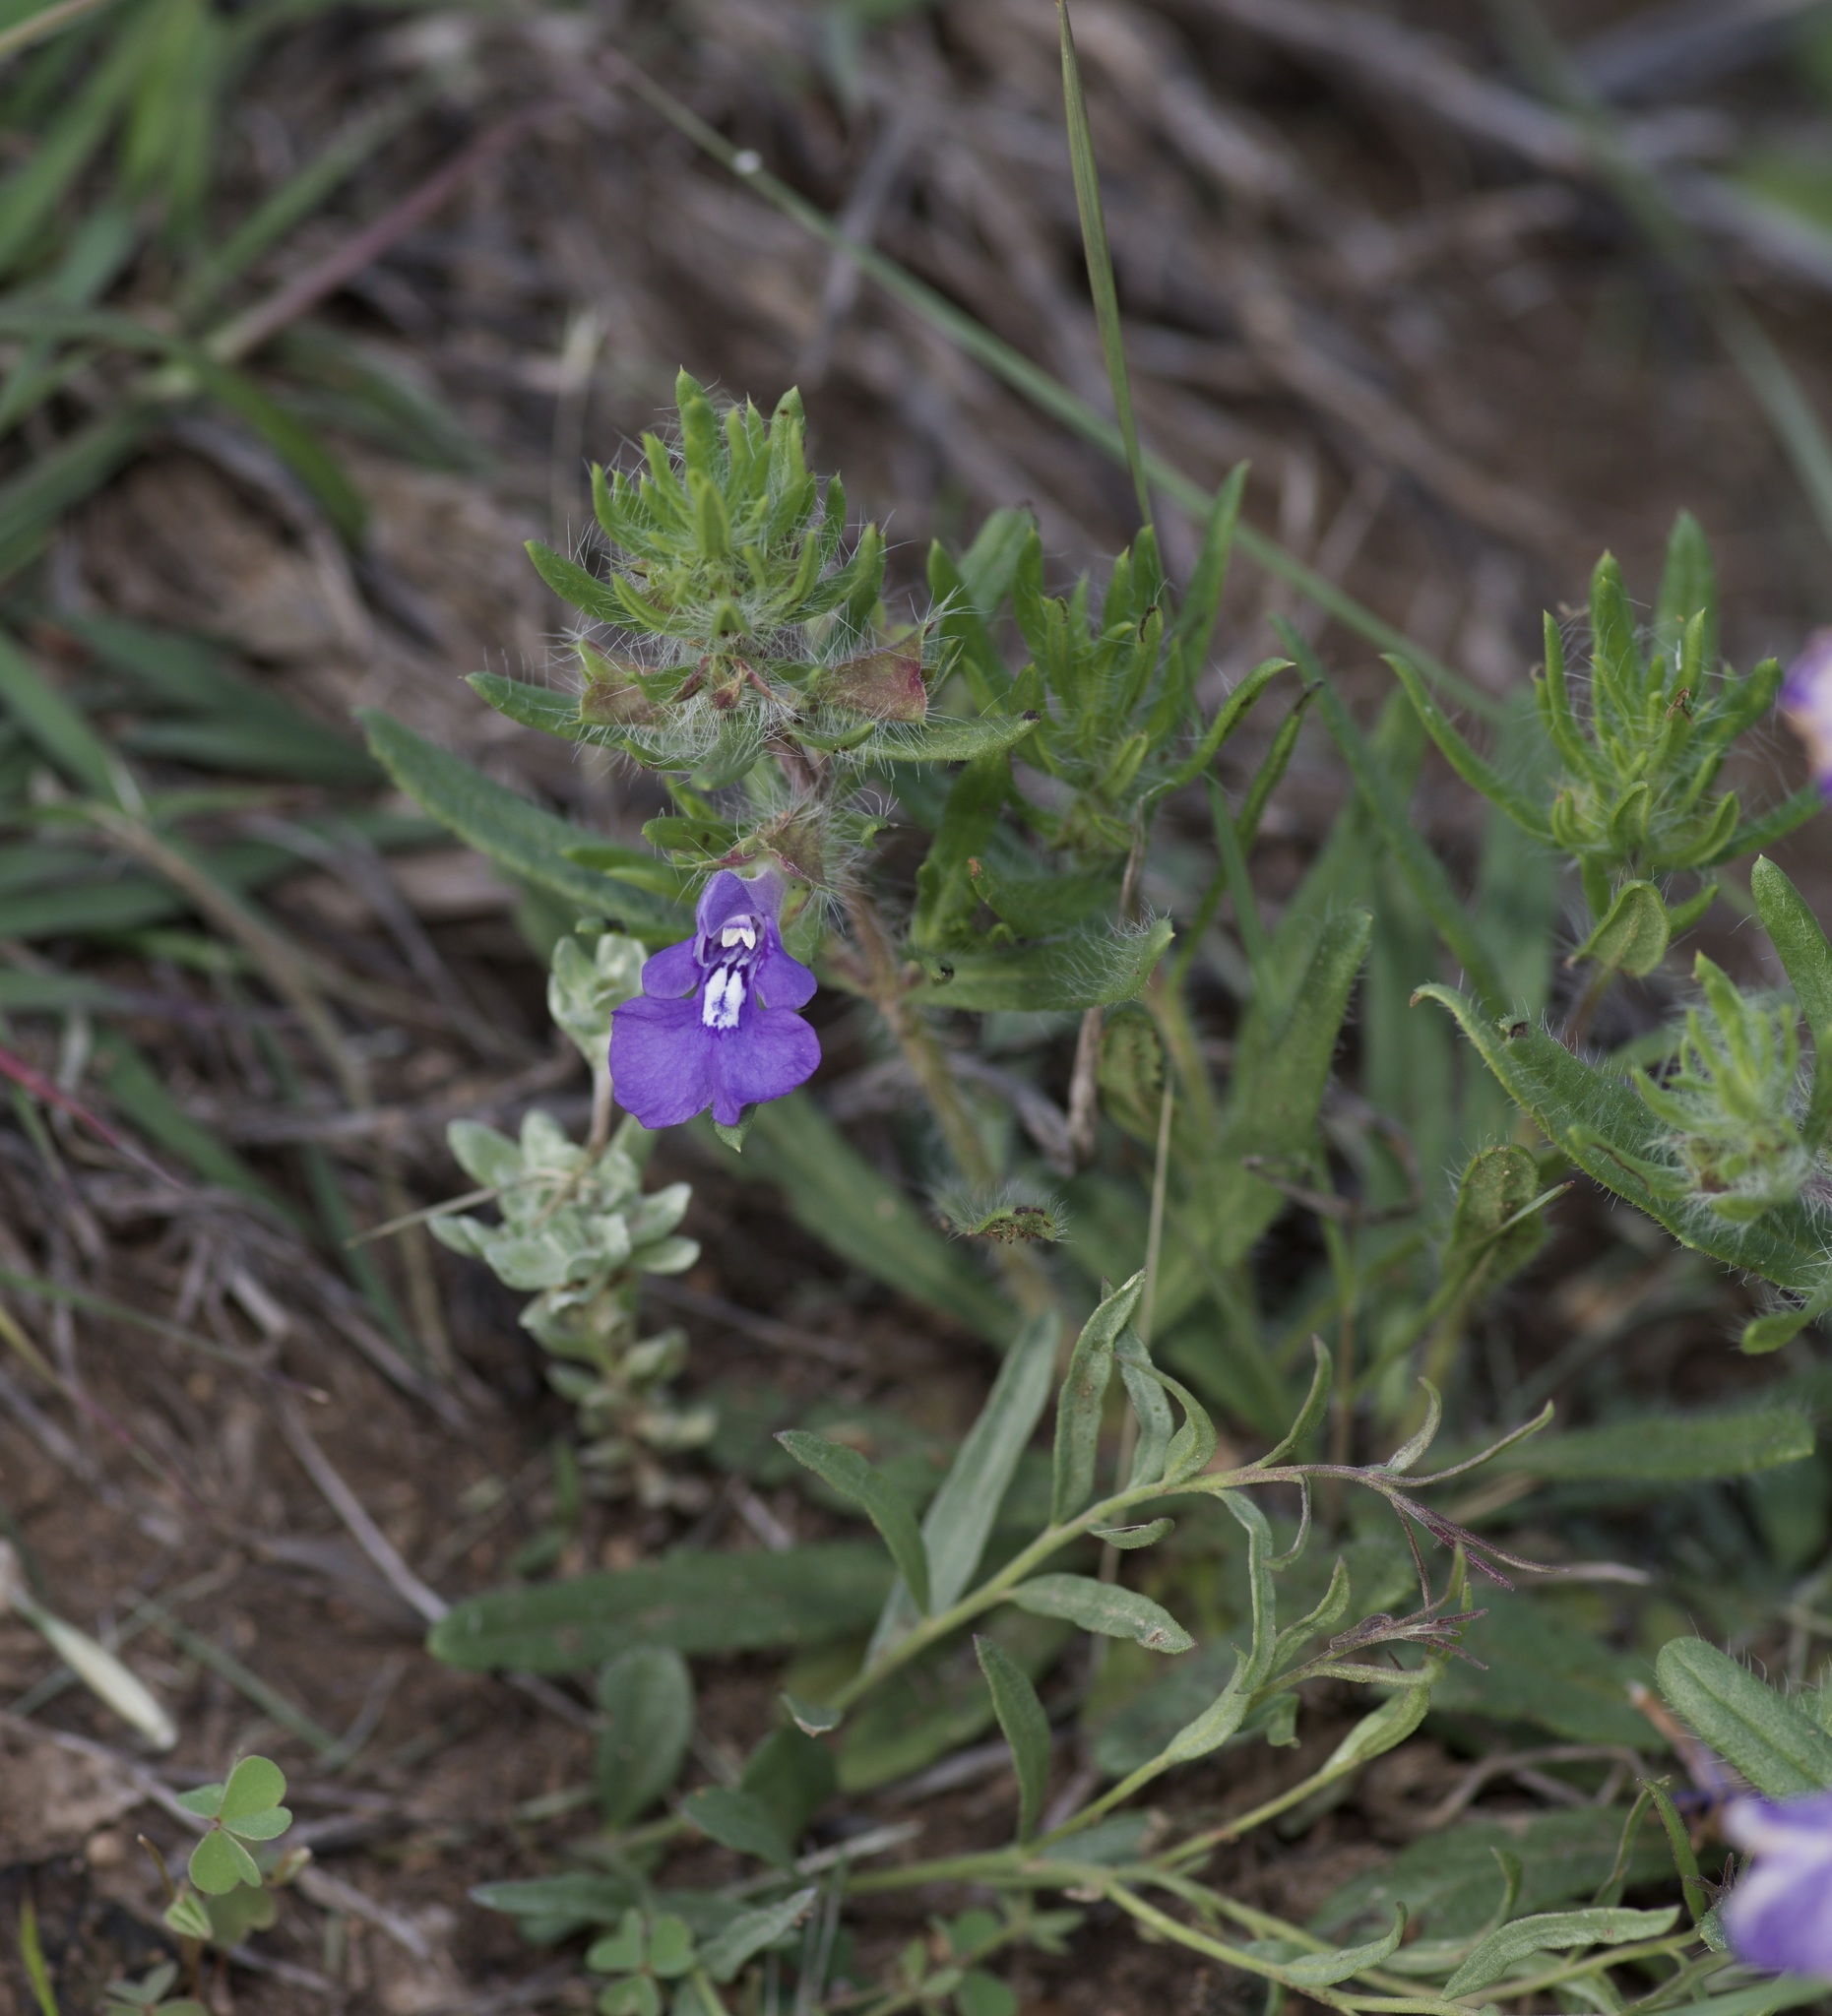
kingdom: Plantae
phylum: Tracheophyta
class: Magnoliopsida
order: Lamiales
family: Lamiaceae
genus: Salvia
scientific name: Salvia texana
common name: Texas sage
